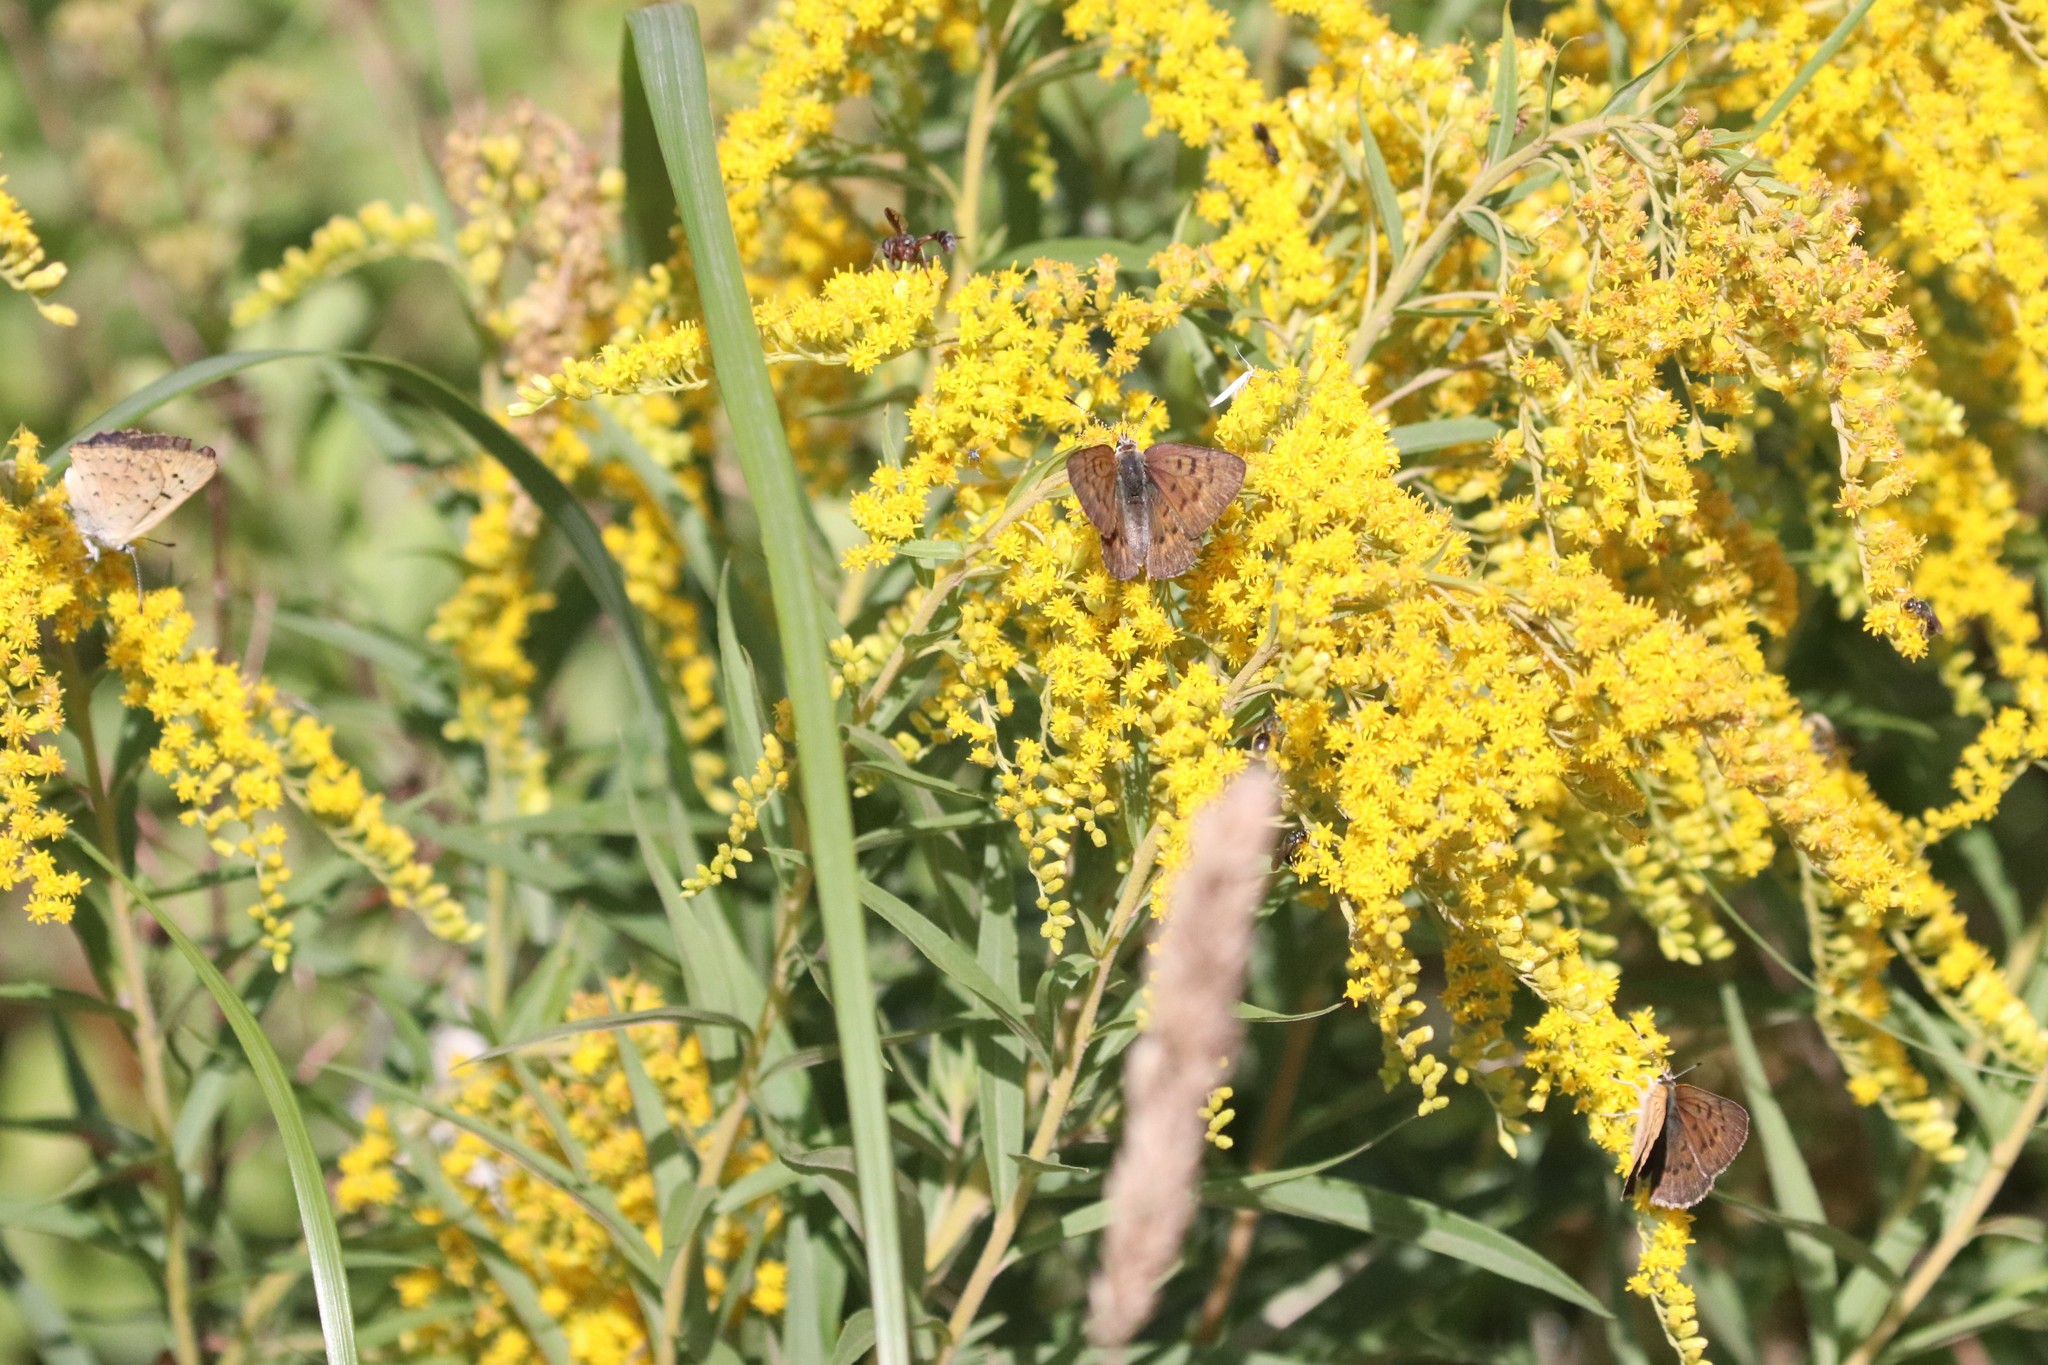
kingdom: Animalia
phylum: Arthropoda
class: Insecta
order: Lepidoptera
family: Lycaenidae
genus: Tharsalea
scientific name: Tharsalea dospassosi
